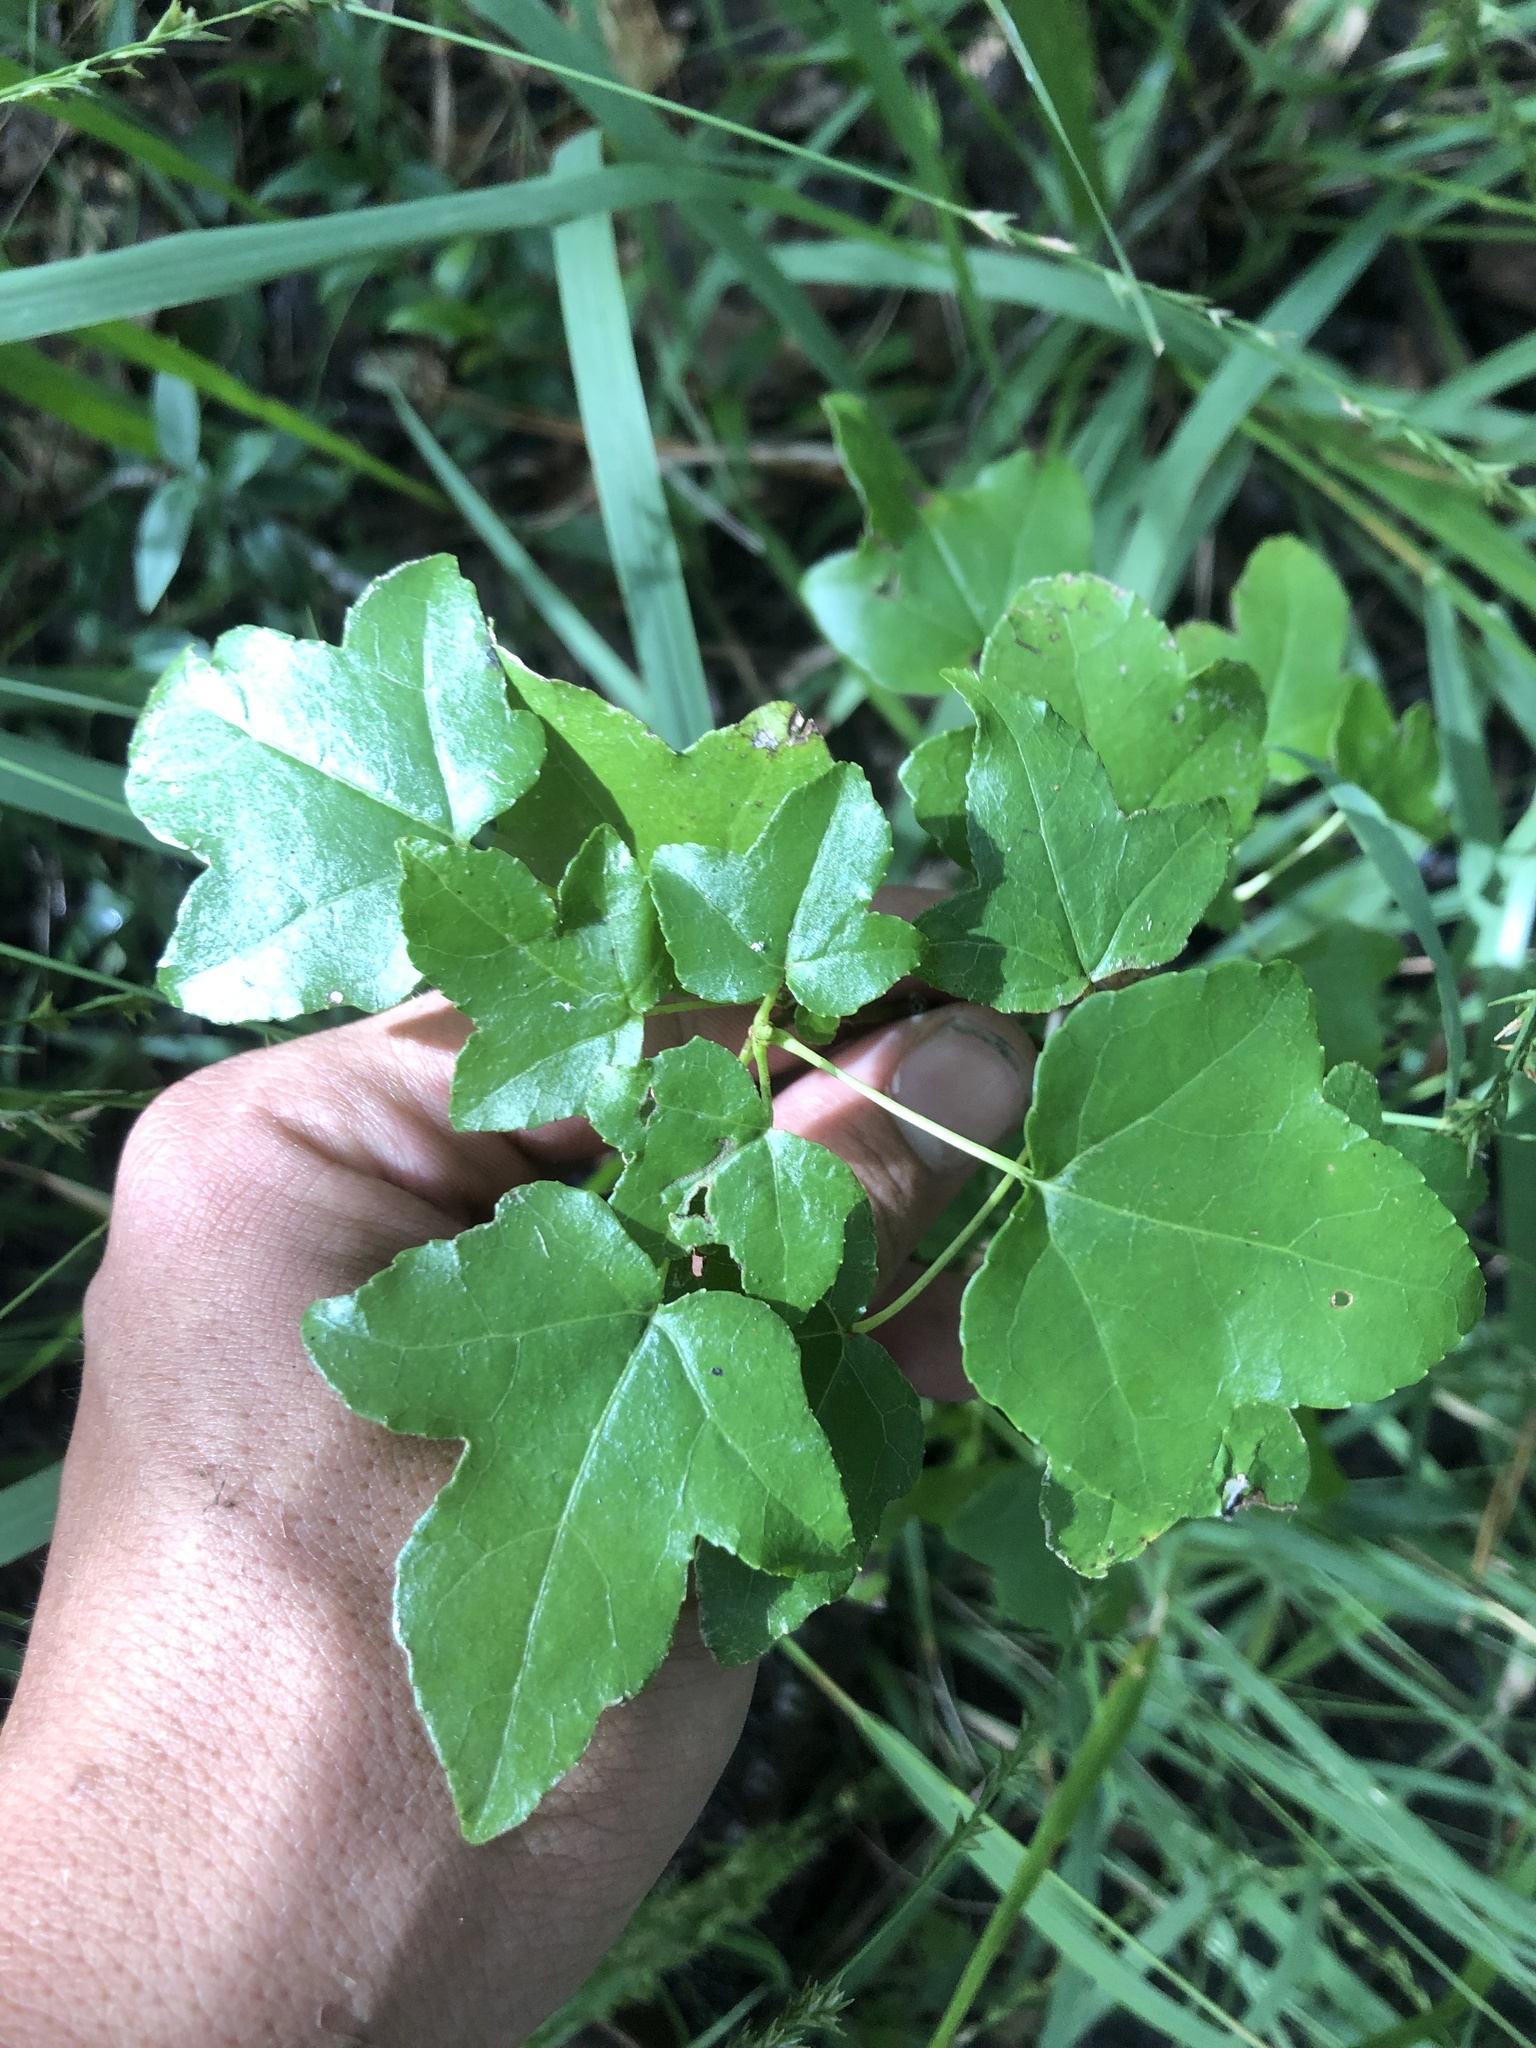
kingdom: Plantae
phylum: Tracheophyta
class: Magnoliopsida
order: Saxifragales
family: Altingiaceae
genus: Liquidambar
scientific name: Liquidambar styraciflua
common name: Sweet gum
